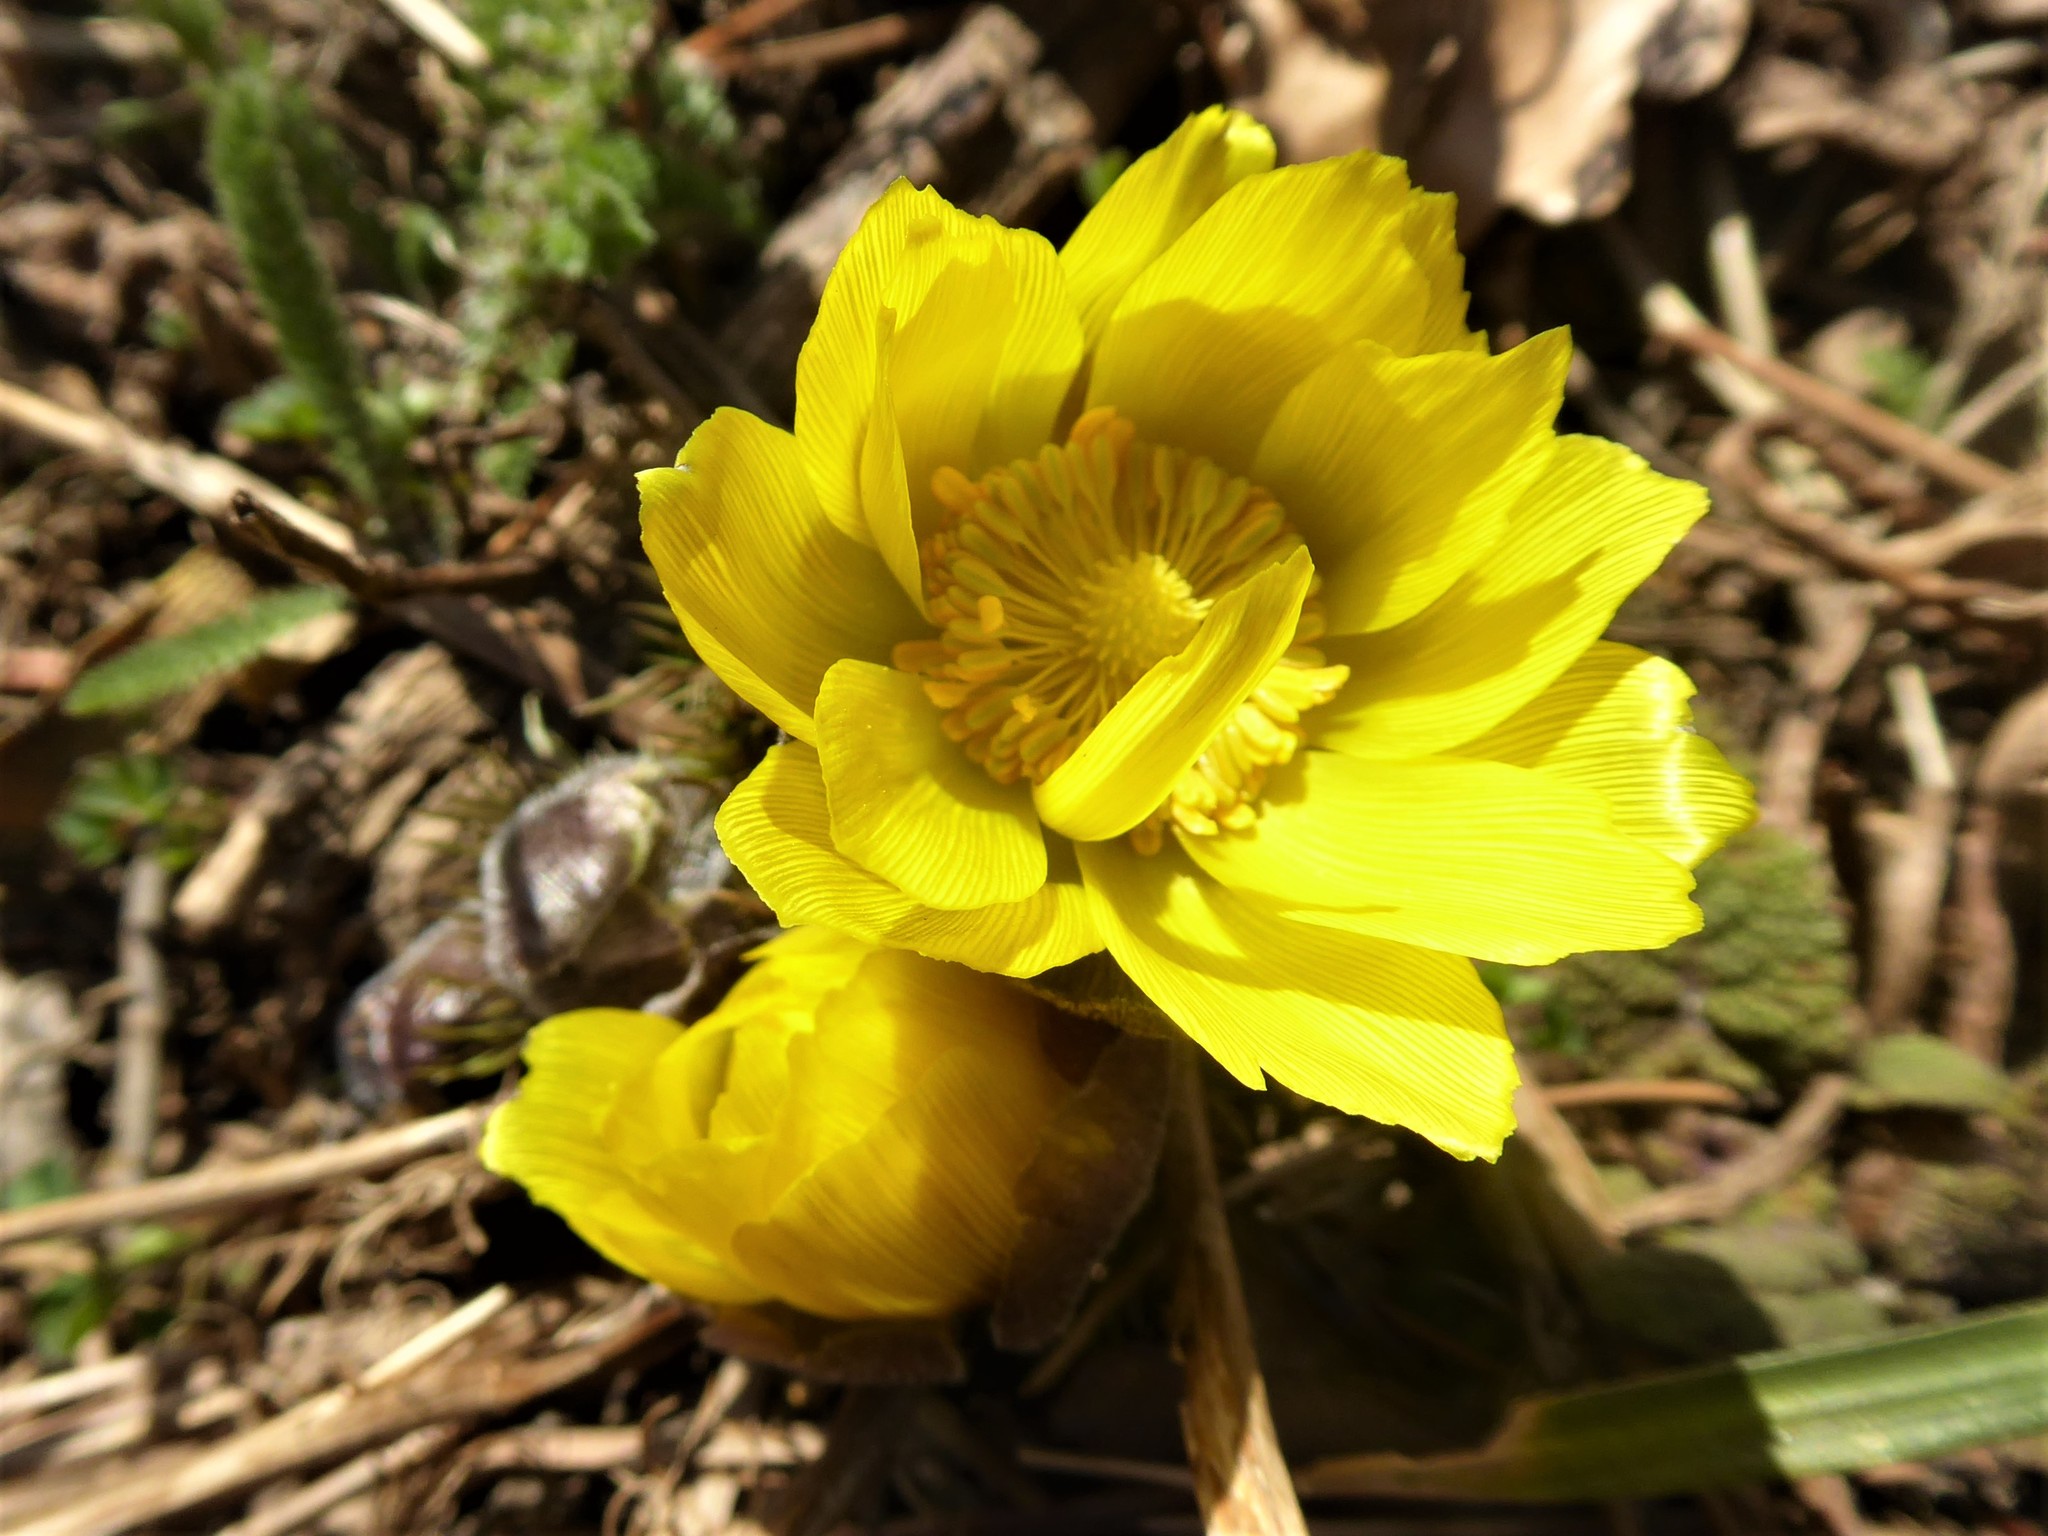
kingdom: Plantae
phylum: Tracheophyta
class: Magnoliopsida
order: Ranunculales
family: Ranunculaceae
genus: Adonis
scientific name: Adonis vernalis
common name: Yellow pheasants-eye
